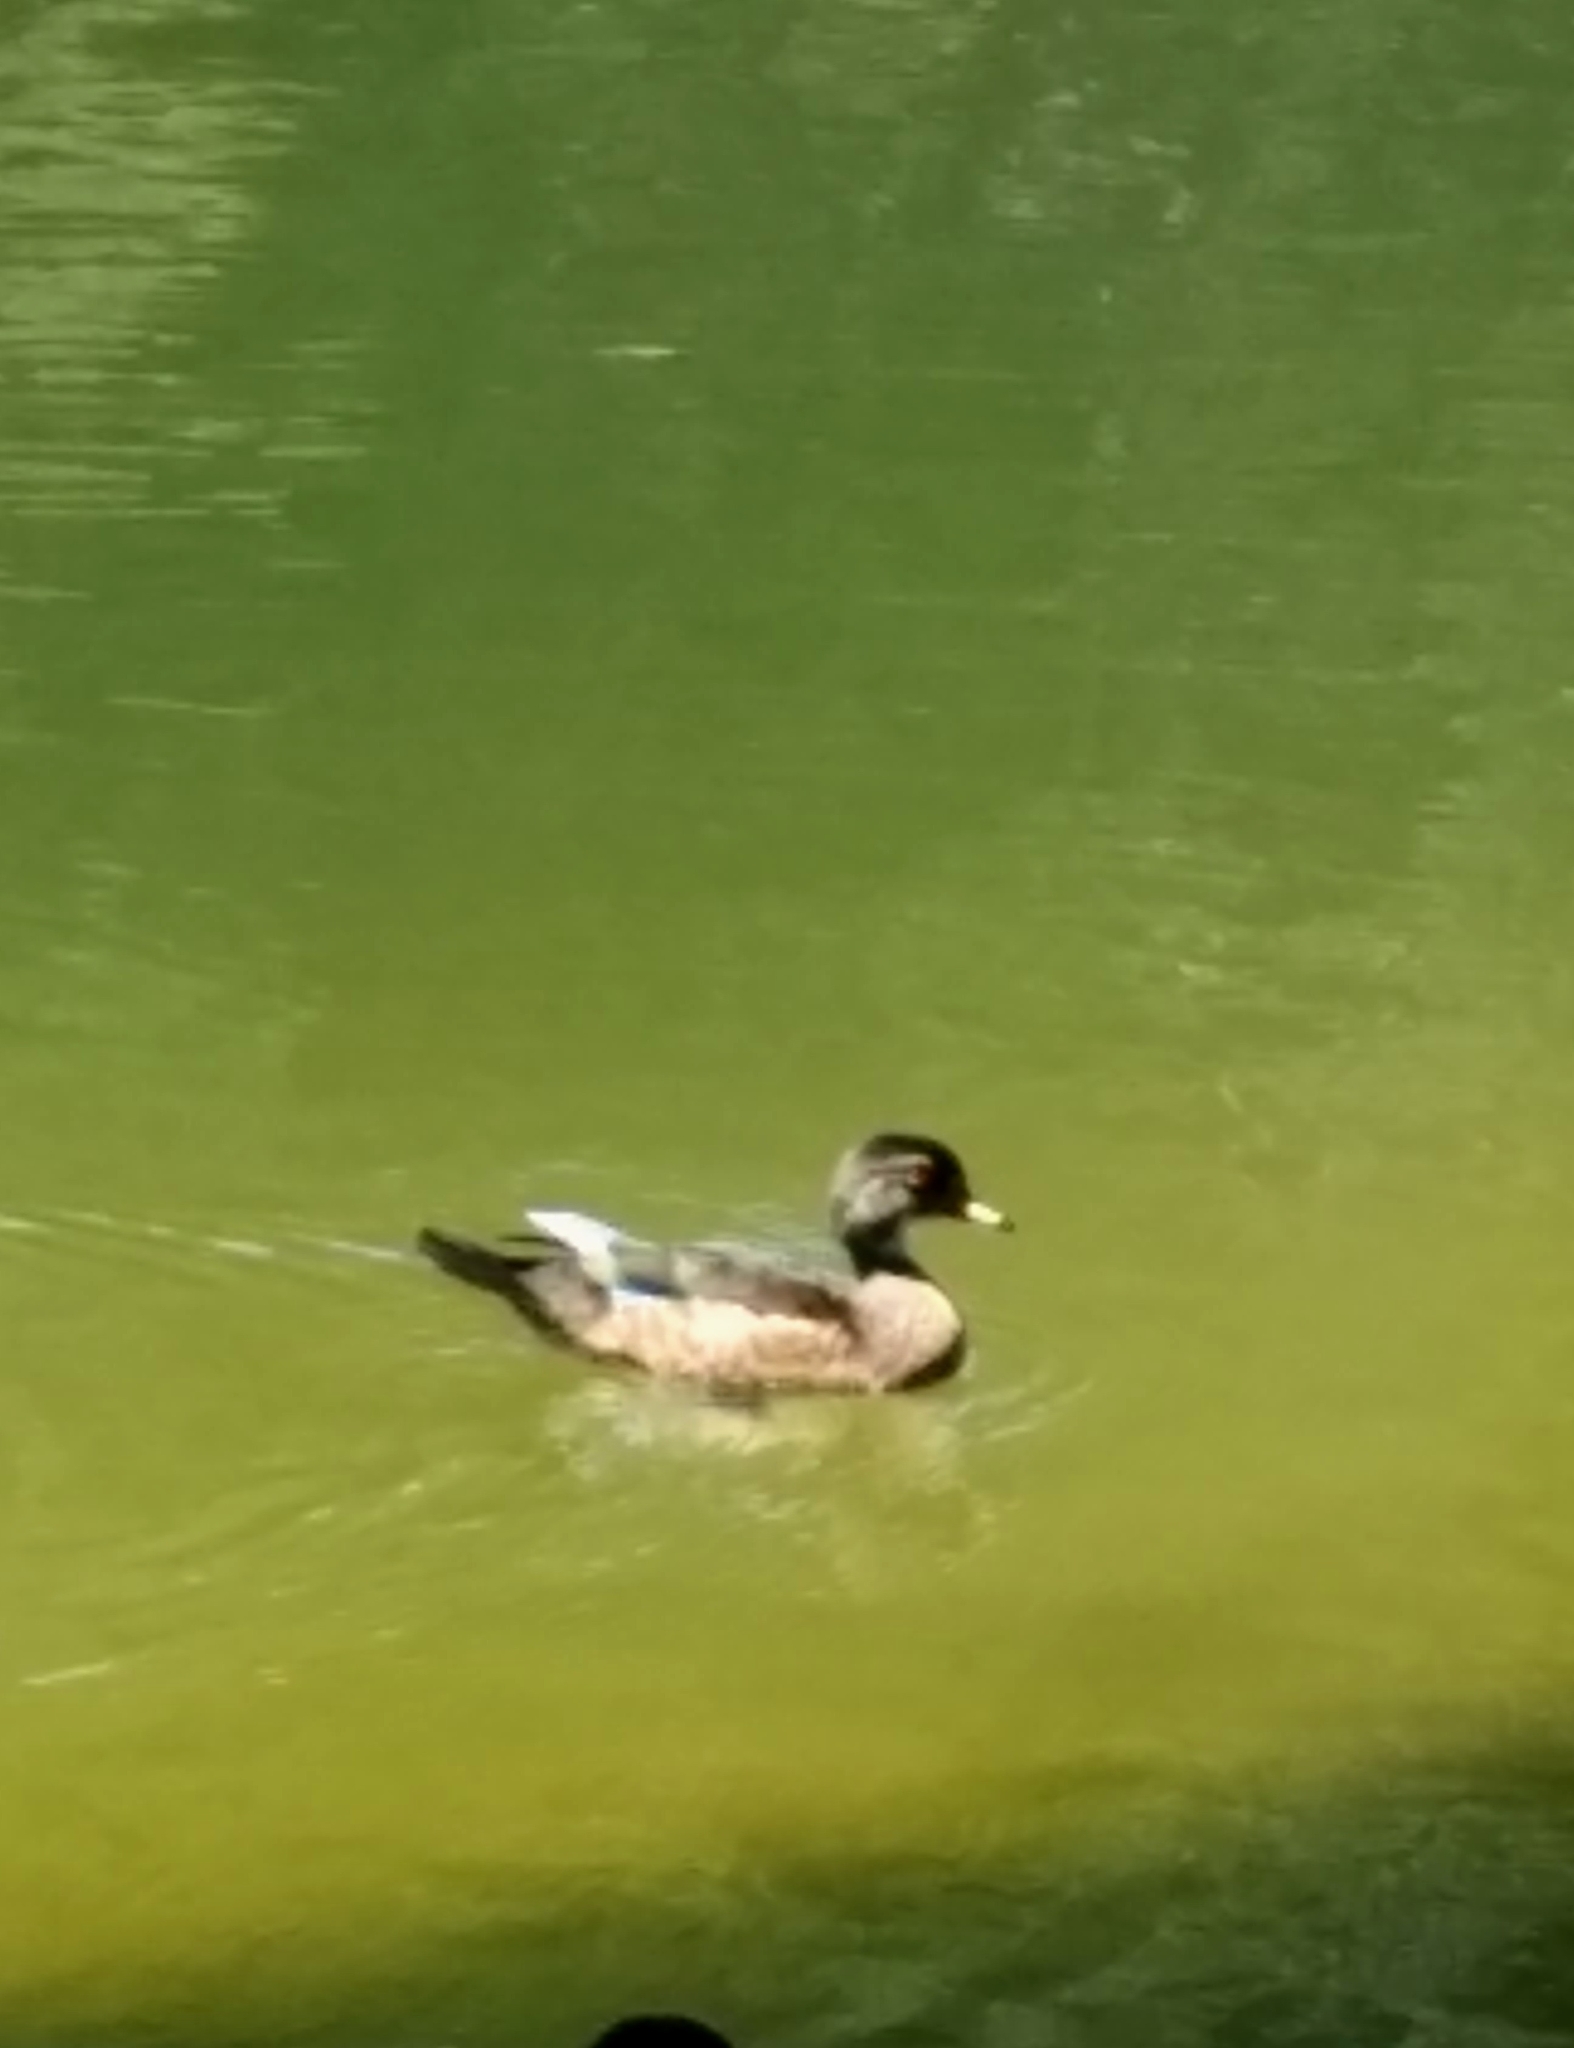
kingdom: Animalia
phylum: Chordata
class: Aves
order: Anseriformes
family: Anatidae
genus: Aix
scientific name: Aix sponsa
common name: Wood duck
